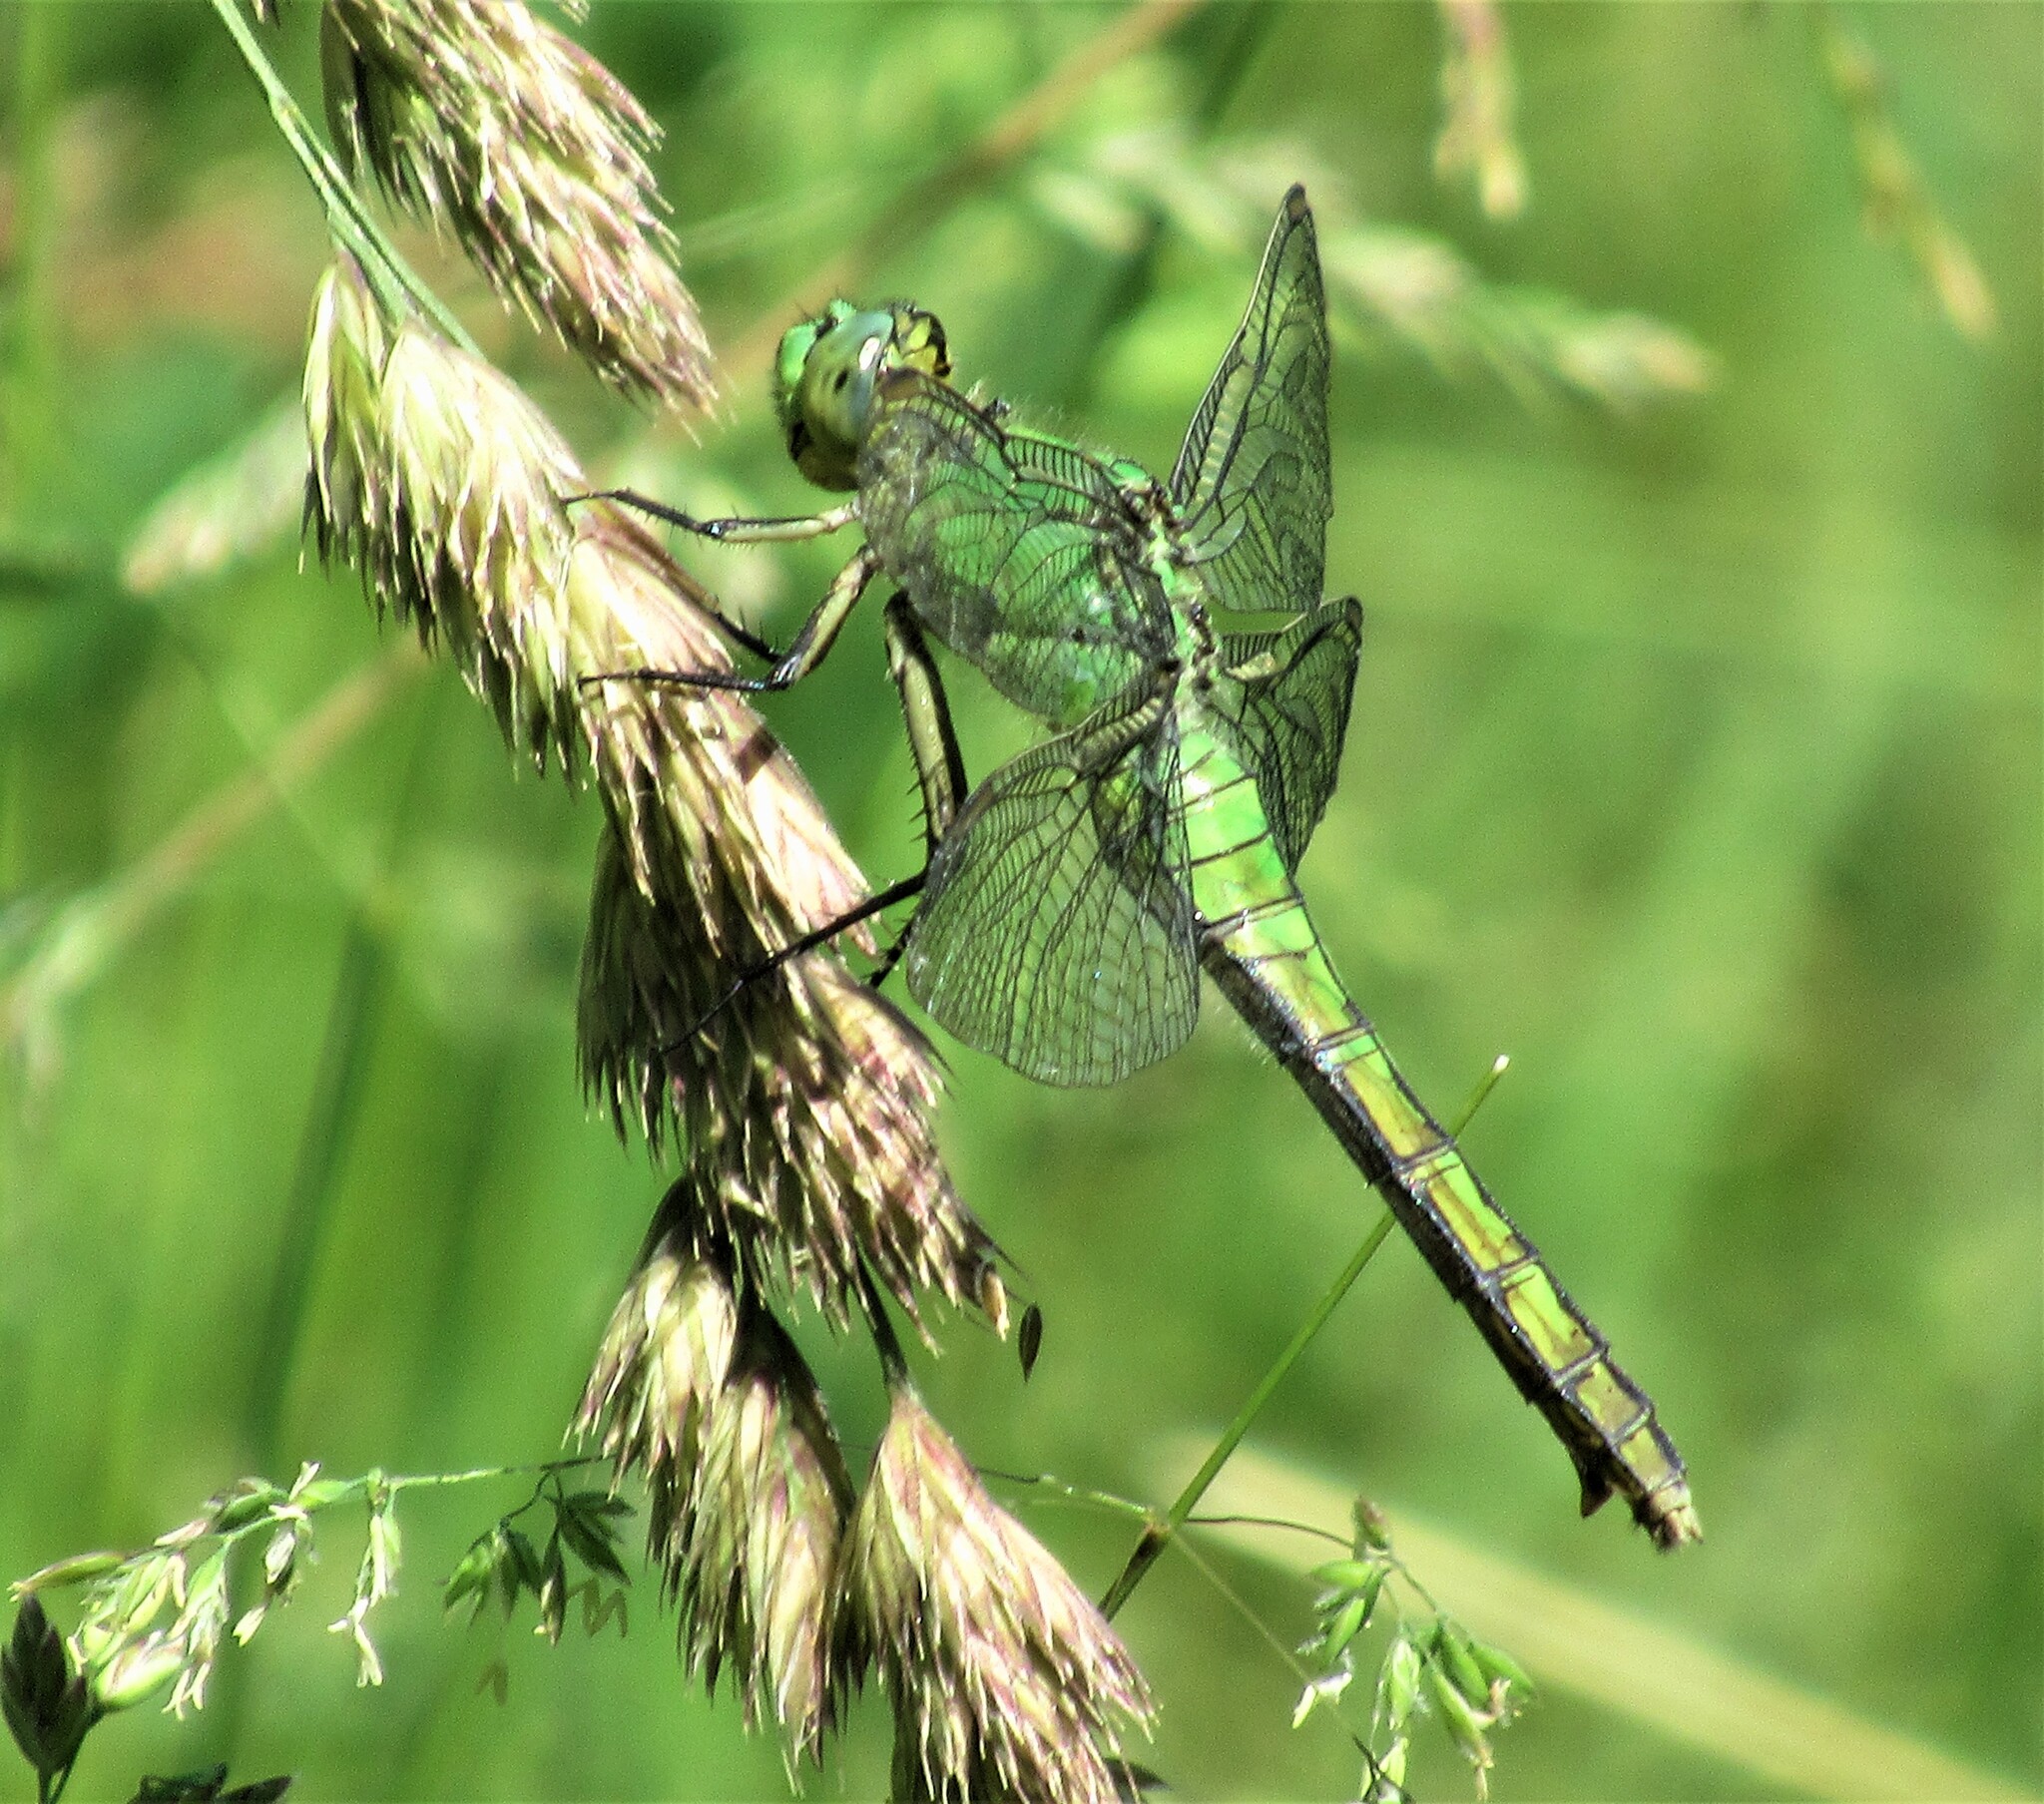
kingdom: Animalia
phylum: Arthropoda
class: Insecta
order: Odonata
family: Libellulidae
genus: Erythemis
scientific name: Erythemis collocata
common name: Western pondhawk
